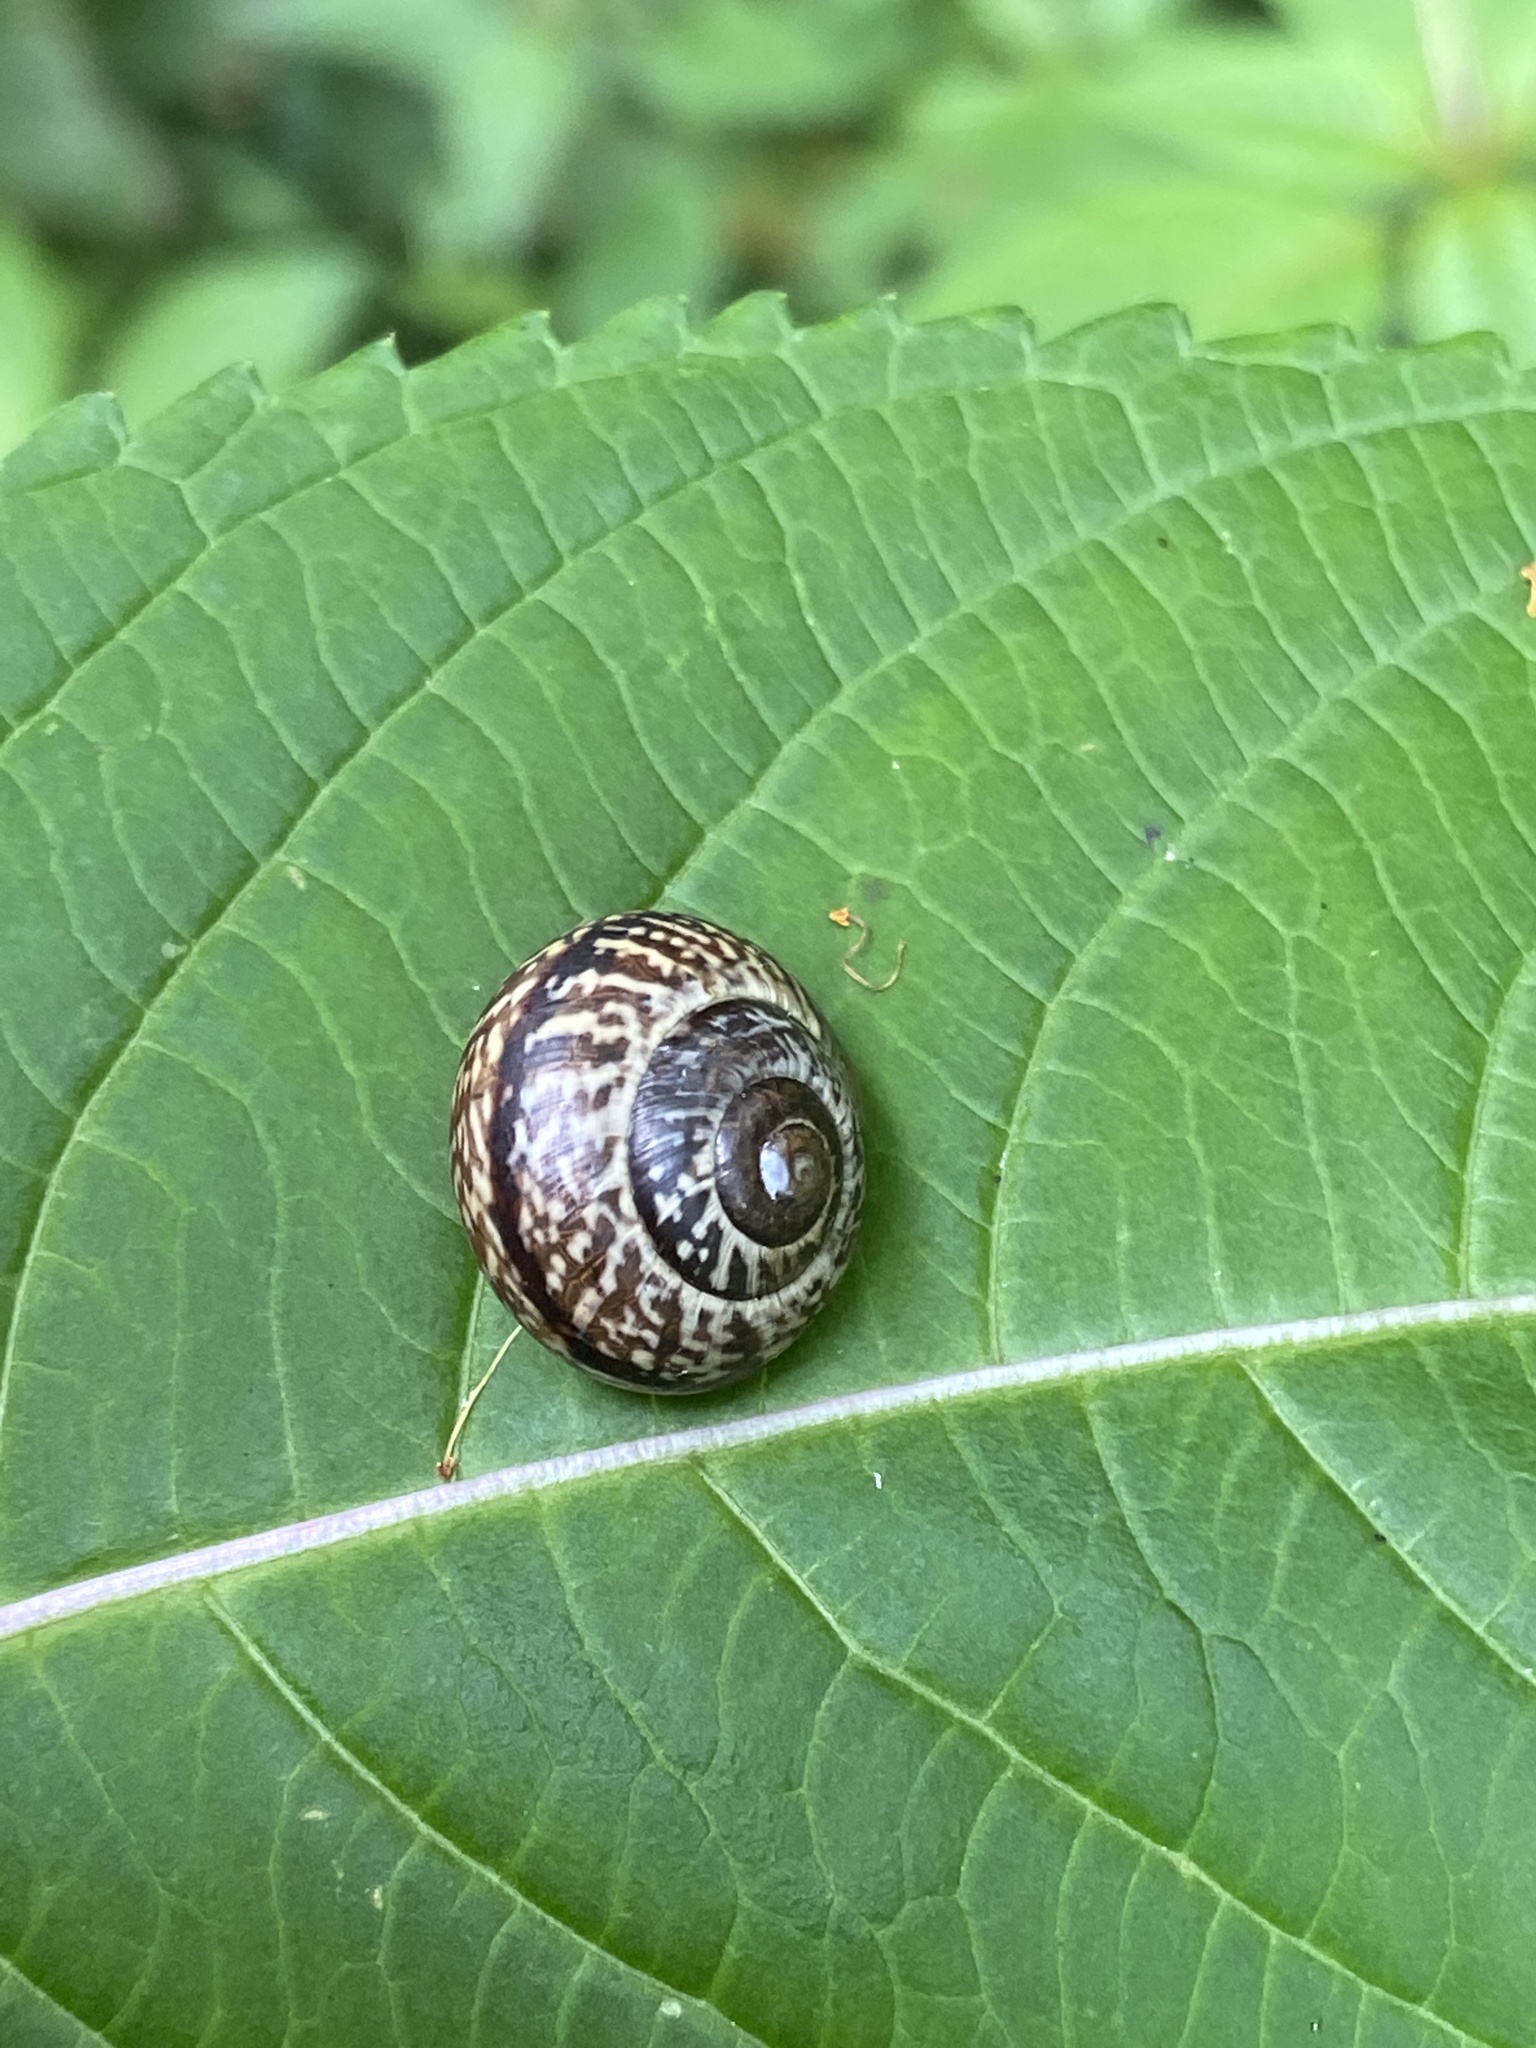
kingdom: Animalia
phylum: Mollusca
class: Gastropoda
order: Stylommatophora
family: Helicidae
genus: Arianta
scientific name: Arianta arbustorum
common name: Copse snail
